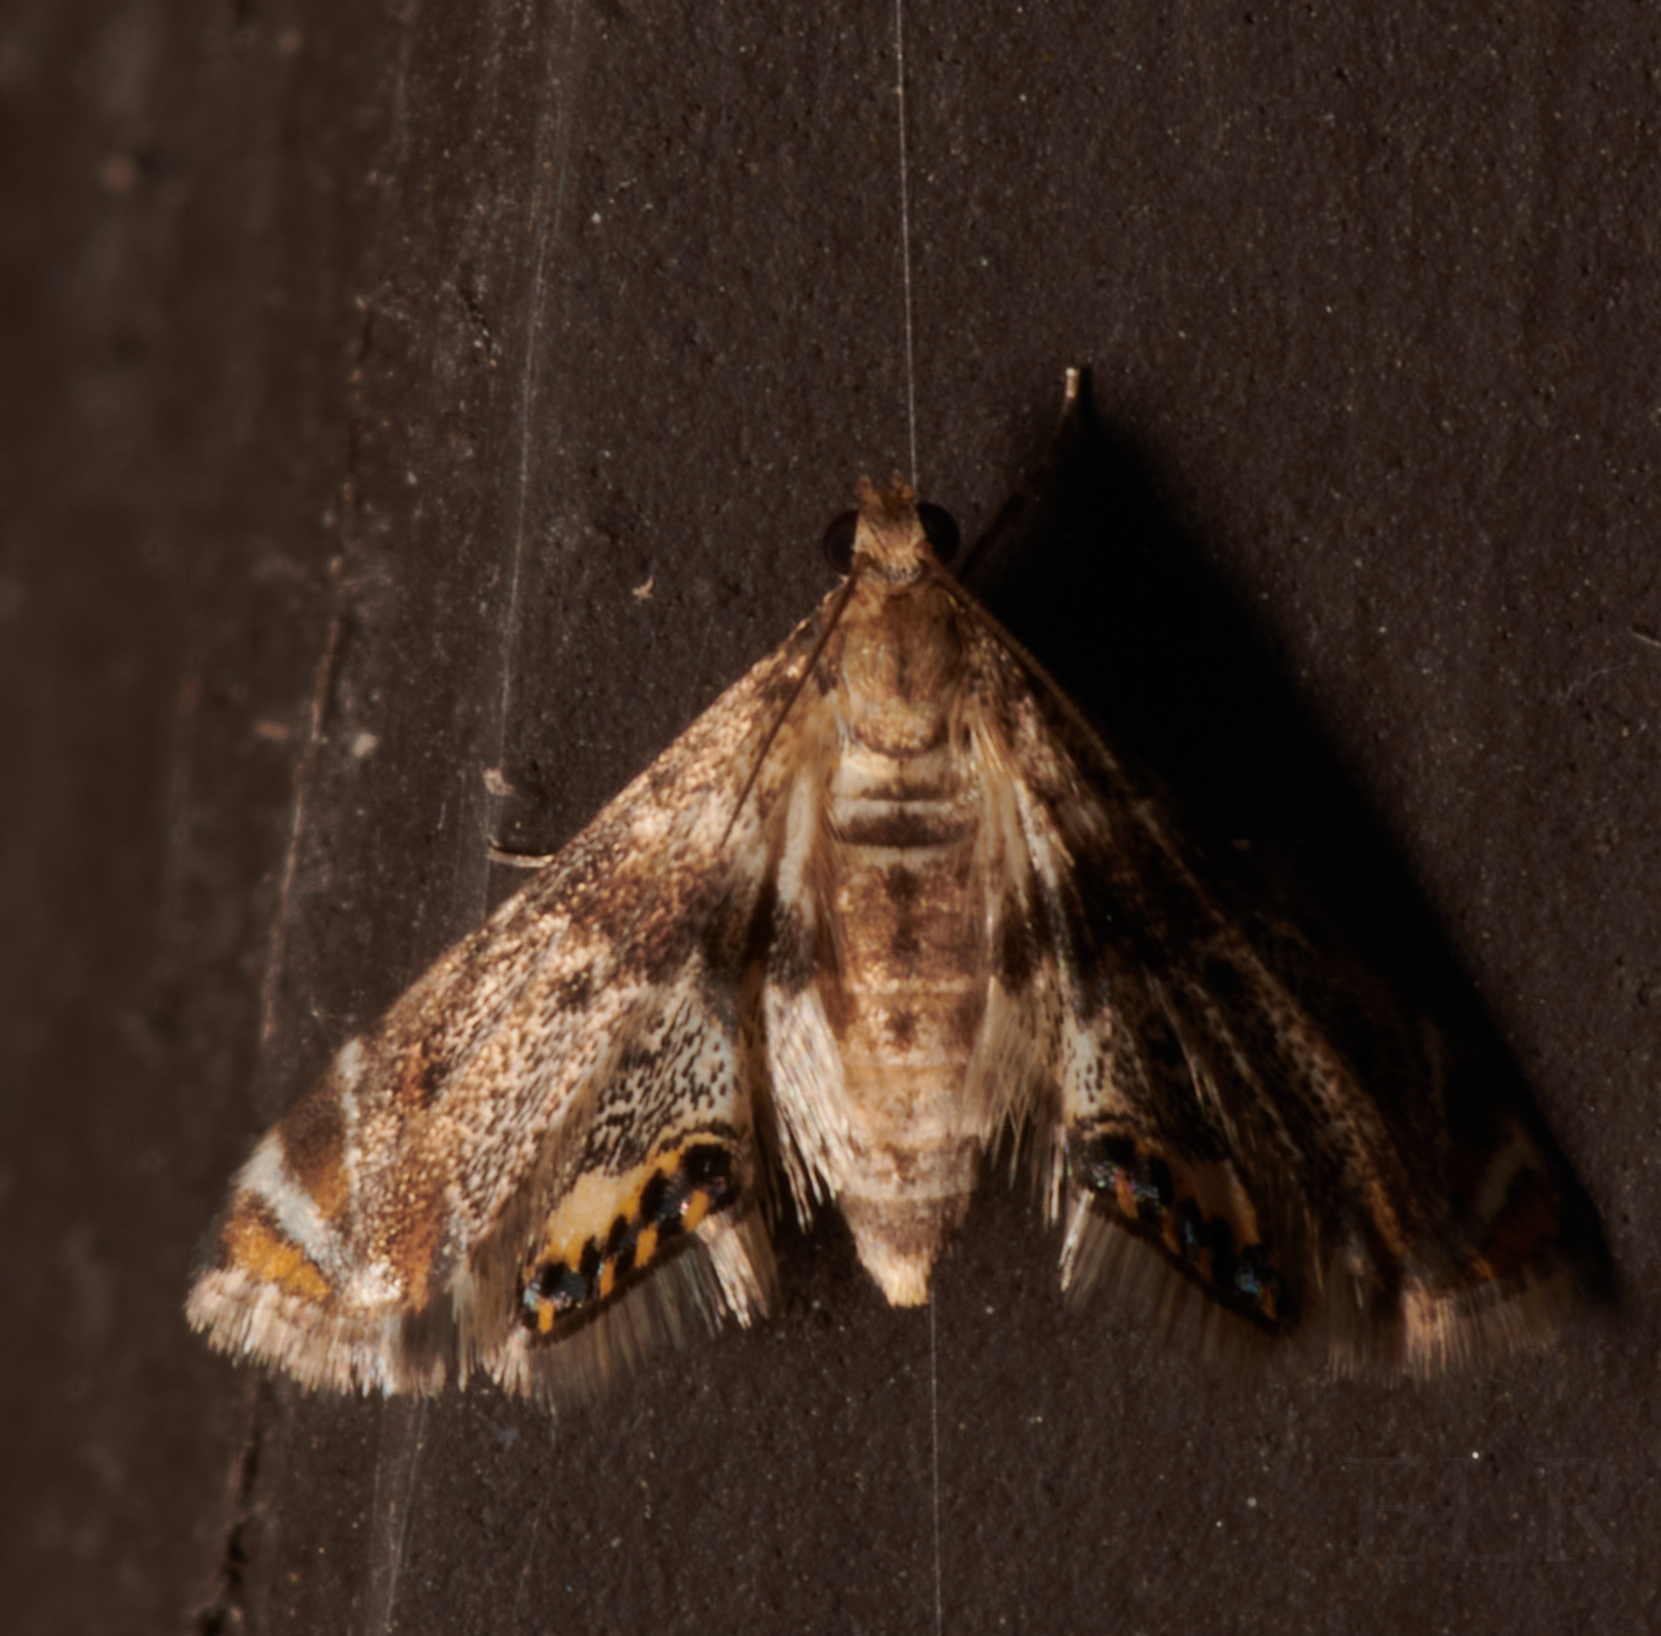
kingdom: Animalia
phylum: Arthropoda
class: Insecta
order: Lepidoptera
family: Crambidae
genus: Petrophila
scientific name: Petrophila fulicalis
